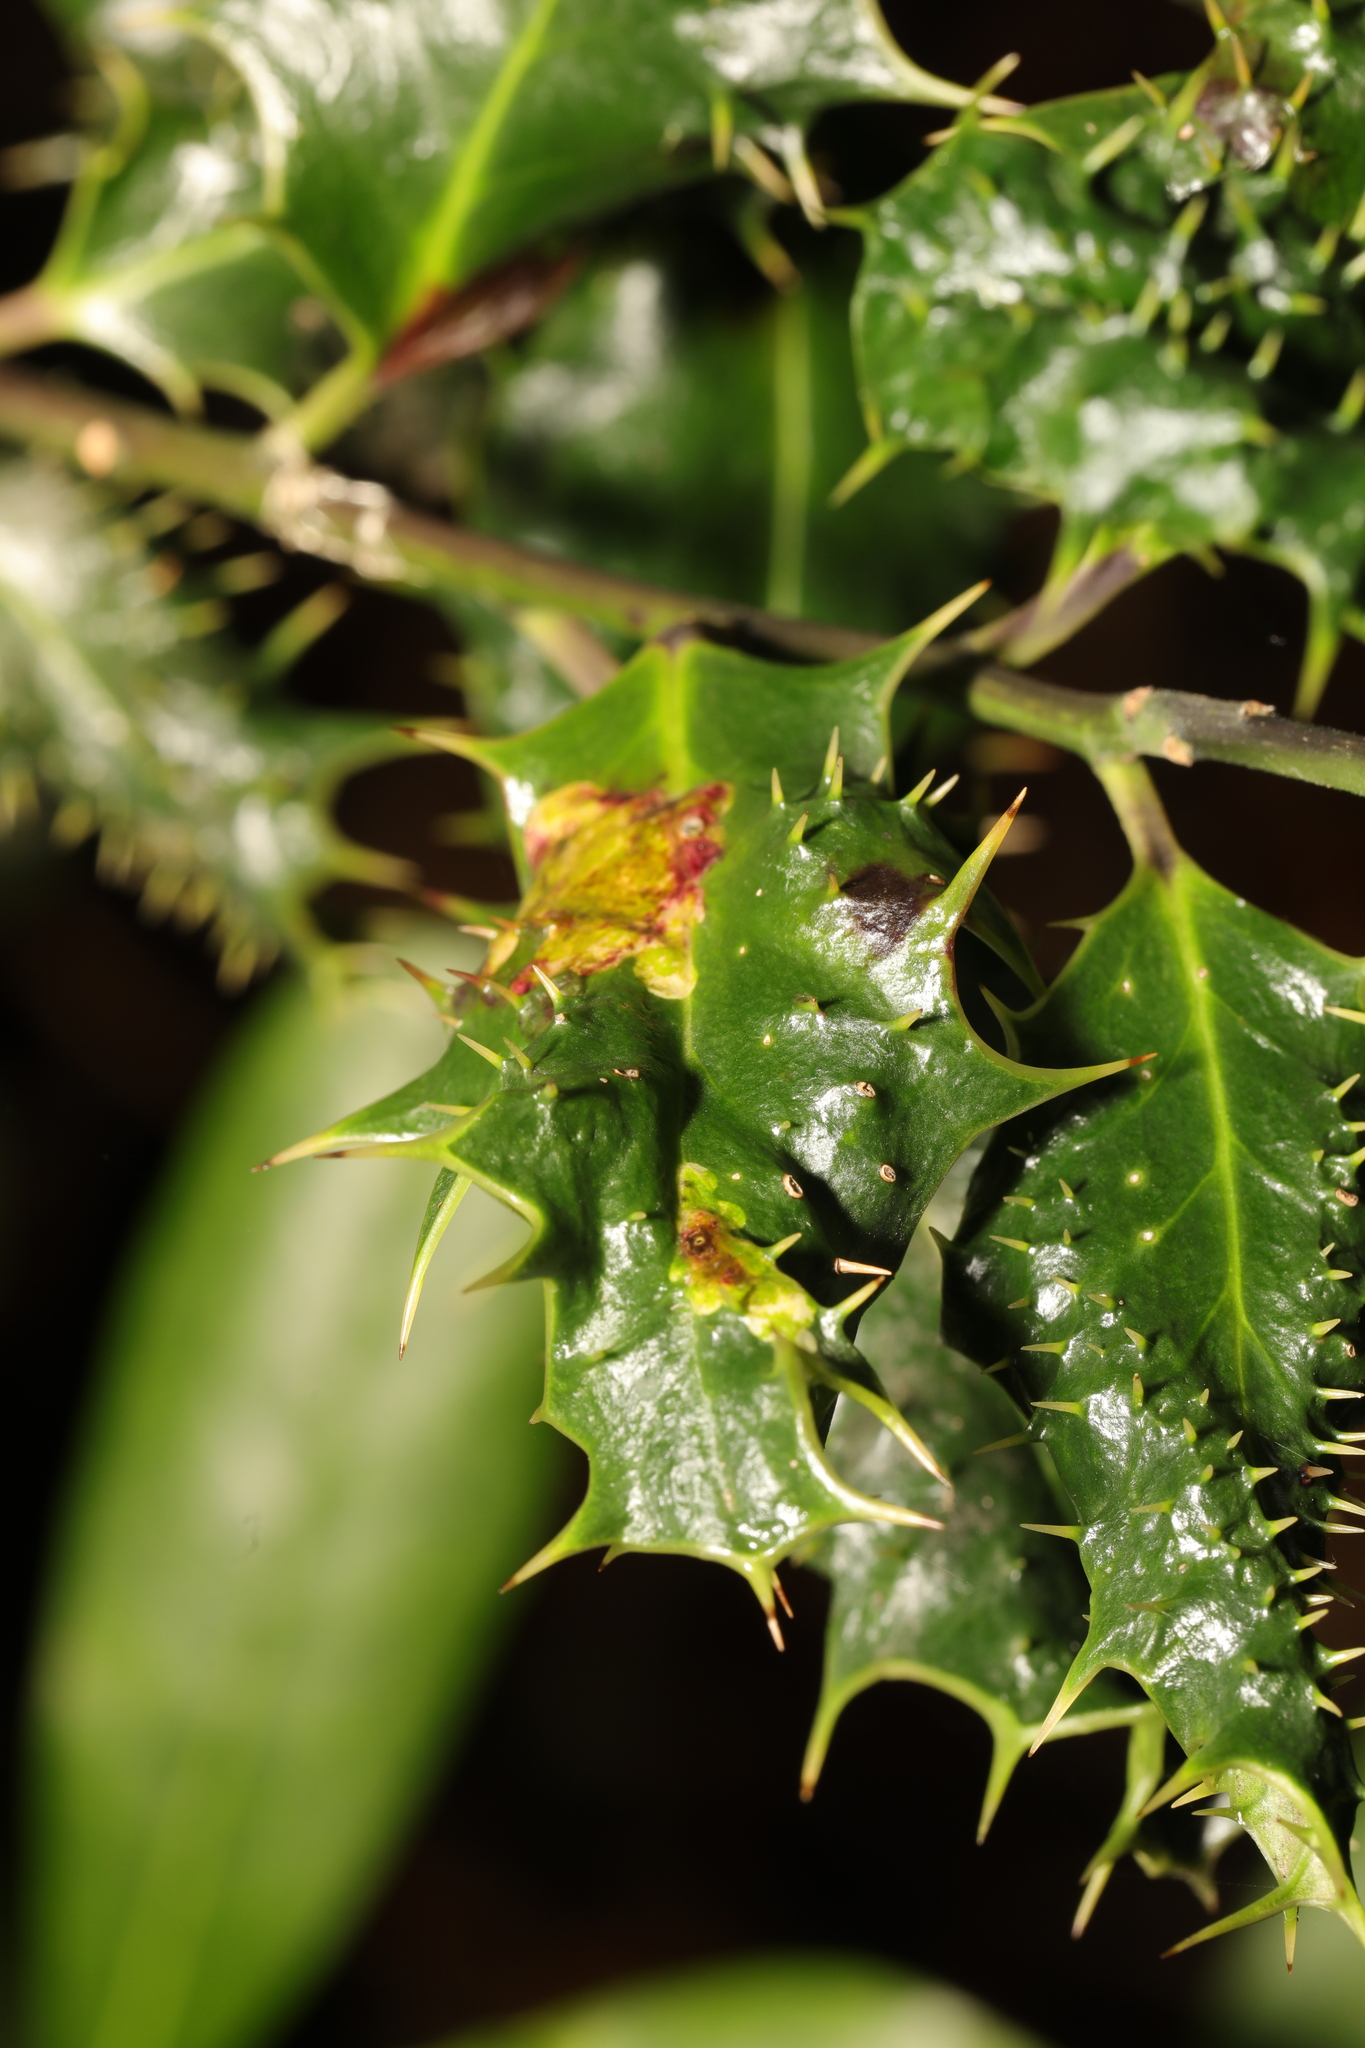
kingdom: Animalia
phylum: Arthropoda
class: Insecta
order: Diptera
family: Agromyzidae
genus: Phytomyza
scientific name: Phytomyza ilicis
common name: Holly leafminer
